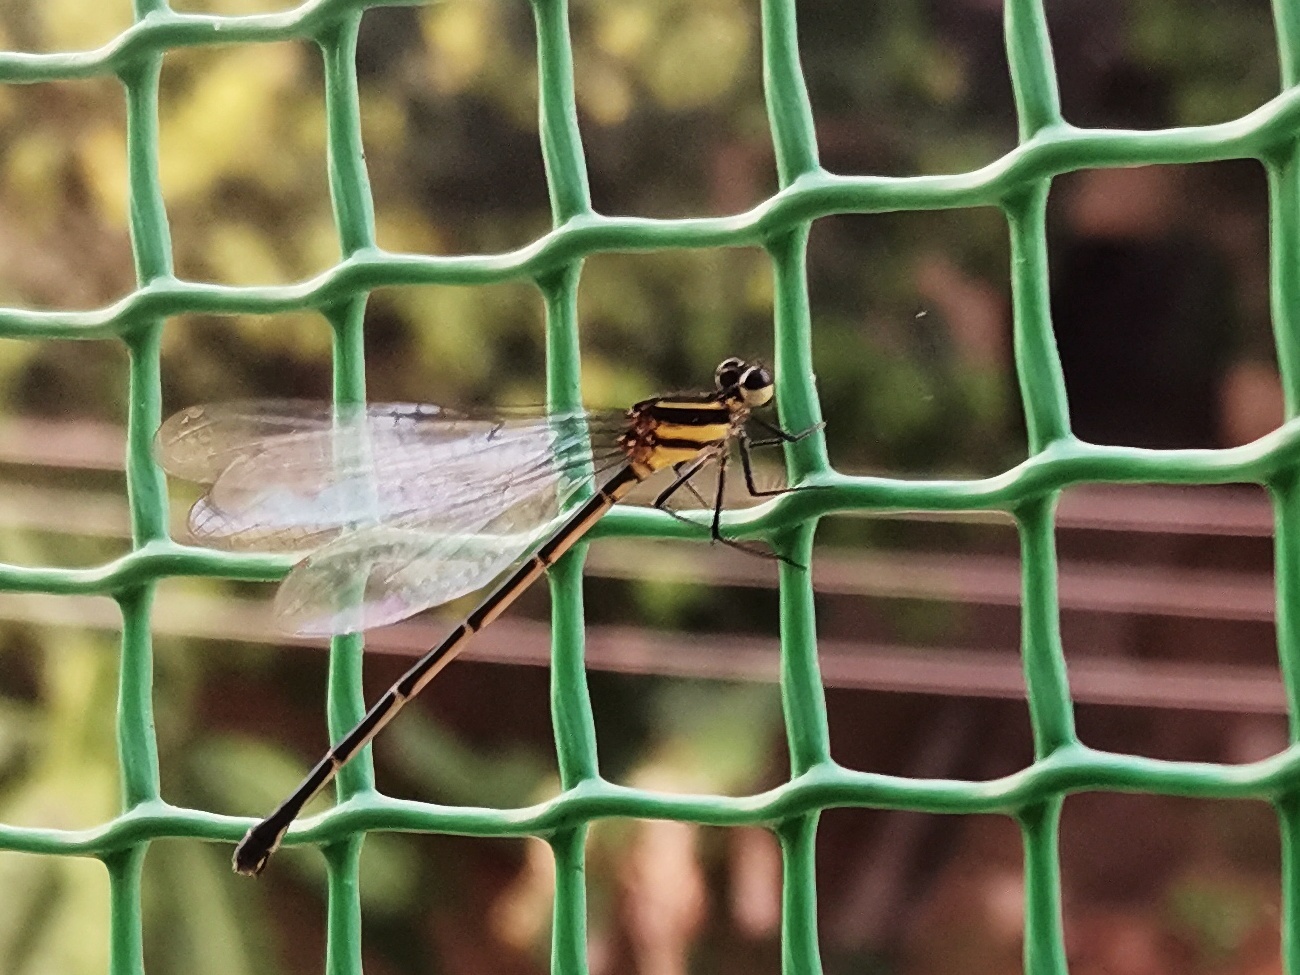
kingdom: Animalia
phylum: Arthropoda
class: Insecta
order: Odonata
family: Platycnemididae
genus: Onychargia
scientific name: Onychargia atrocyana
